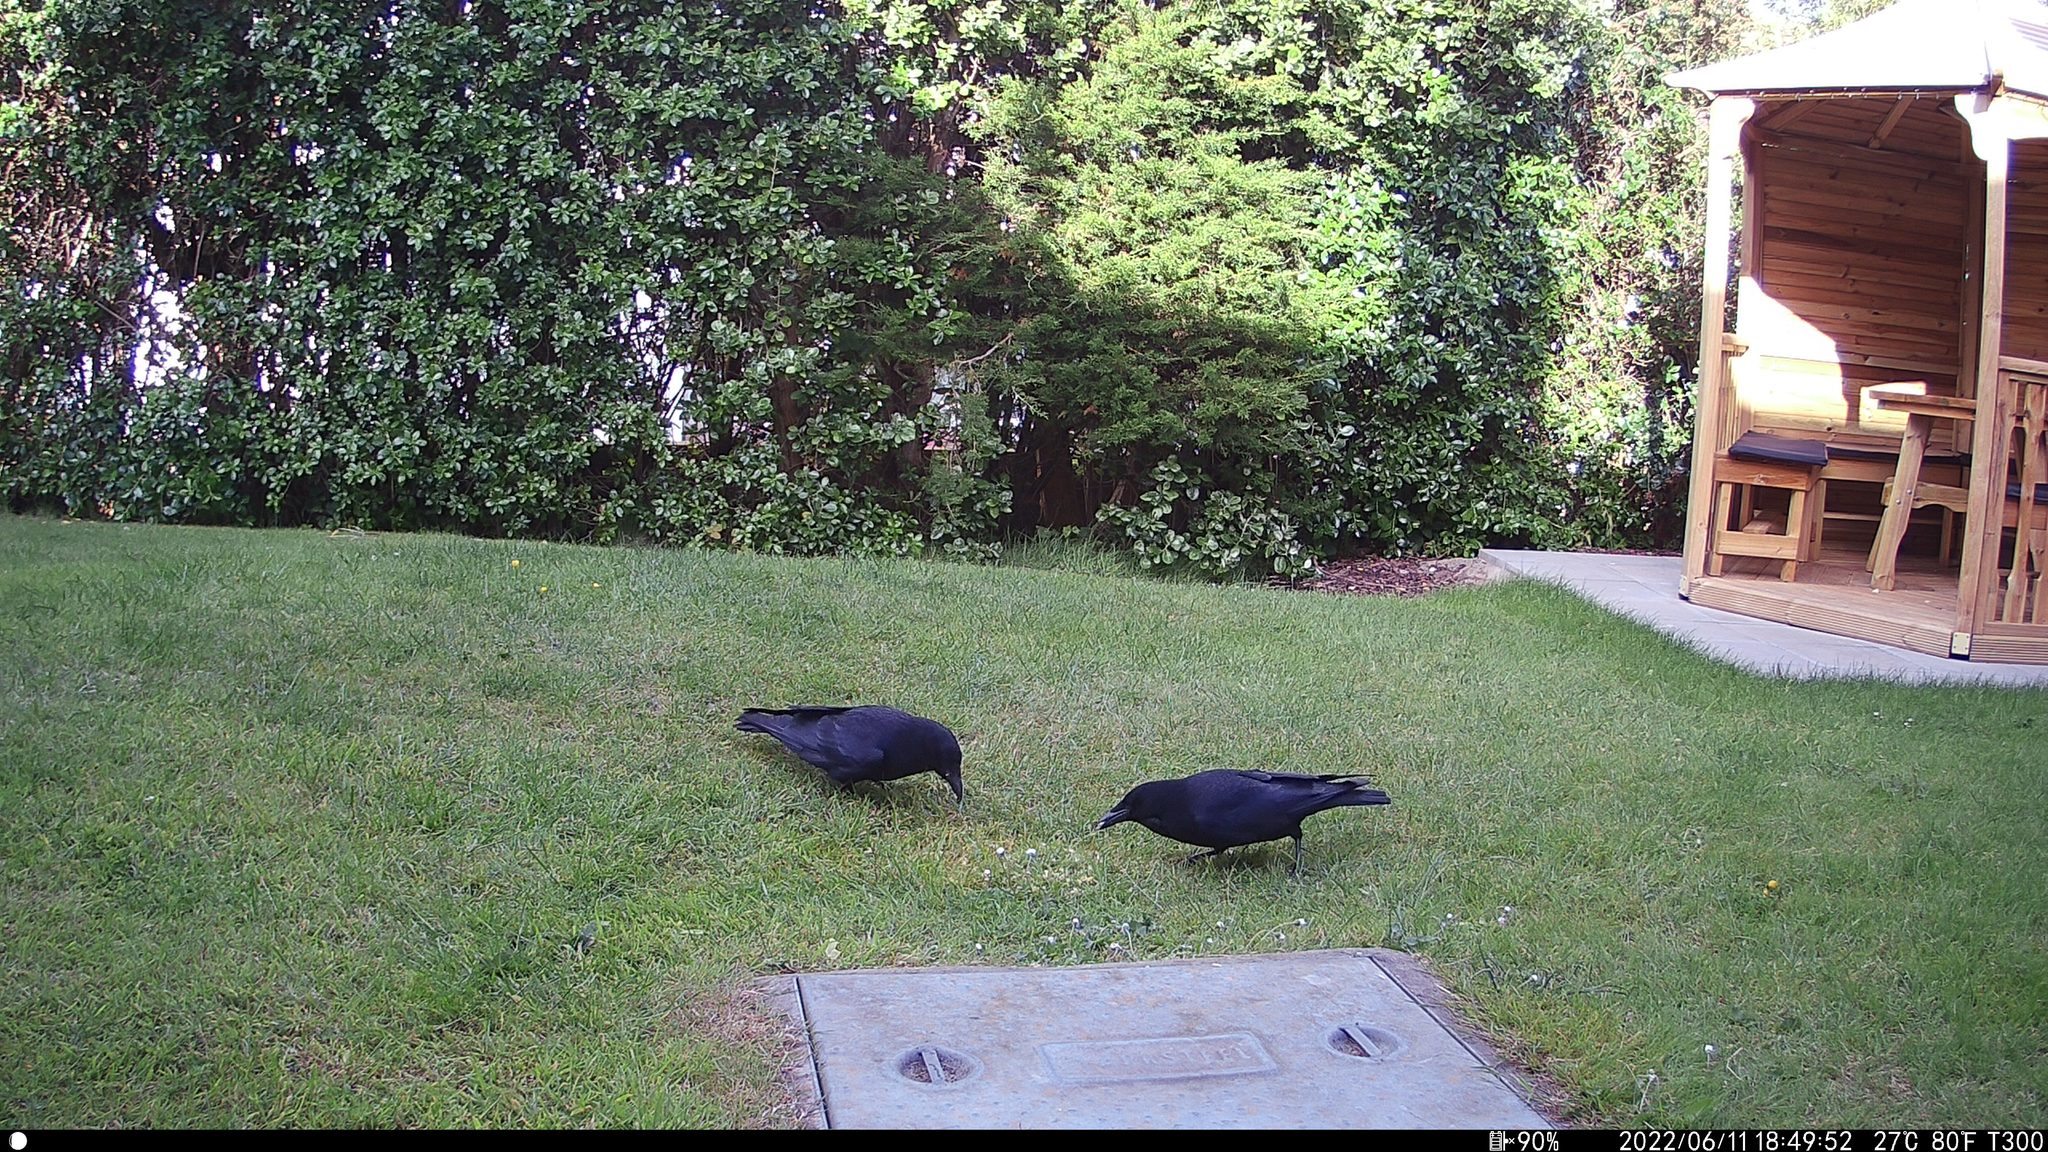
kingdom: Animalia
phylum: Chordata
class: Aves
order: Passeriformes
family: Corvidae
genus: Corvus
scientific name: Corvus corone
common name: Carrion crow
